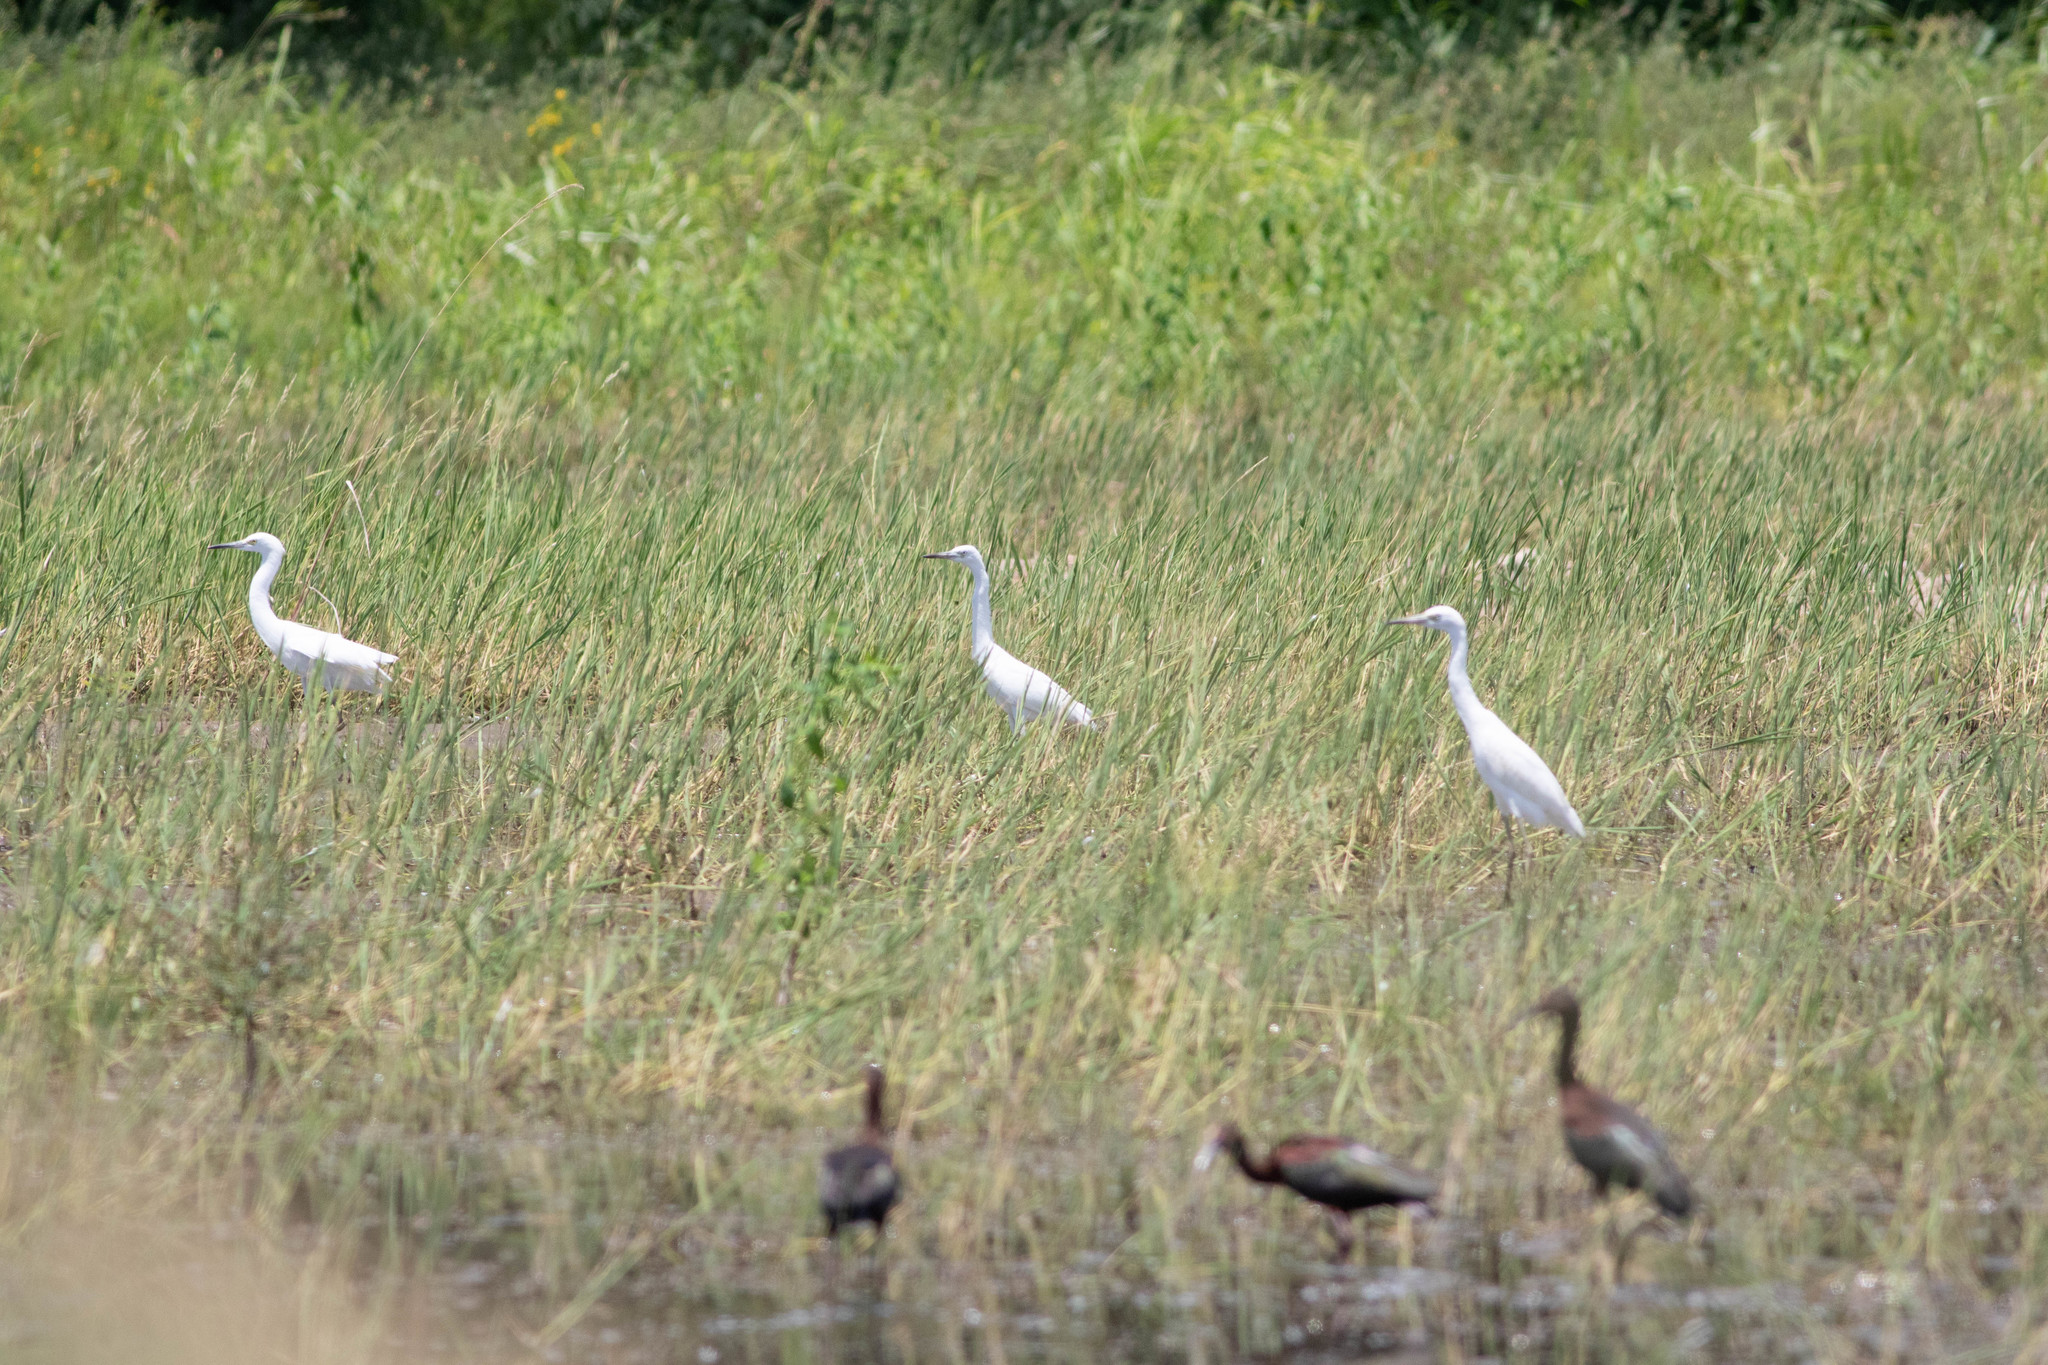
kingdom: Animalia
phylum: Chordata
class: Aves
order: Pelecaniformes
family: Ardeidae
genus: Egretta
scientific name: Egretta caerulea
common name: Little blue heron
